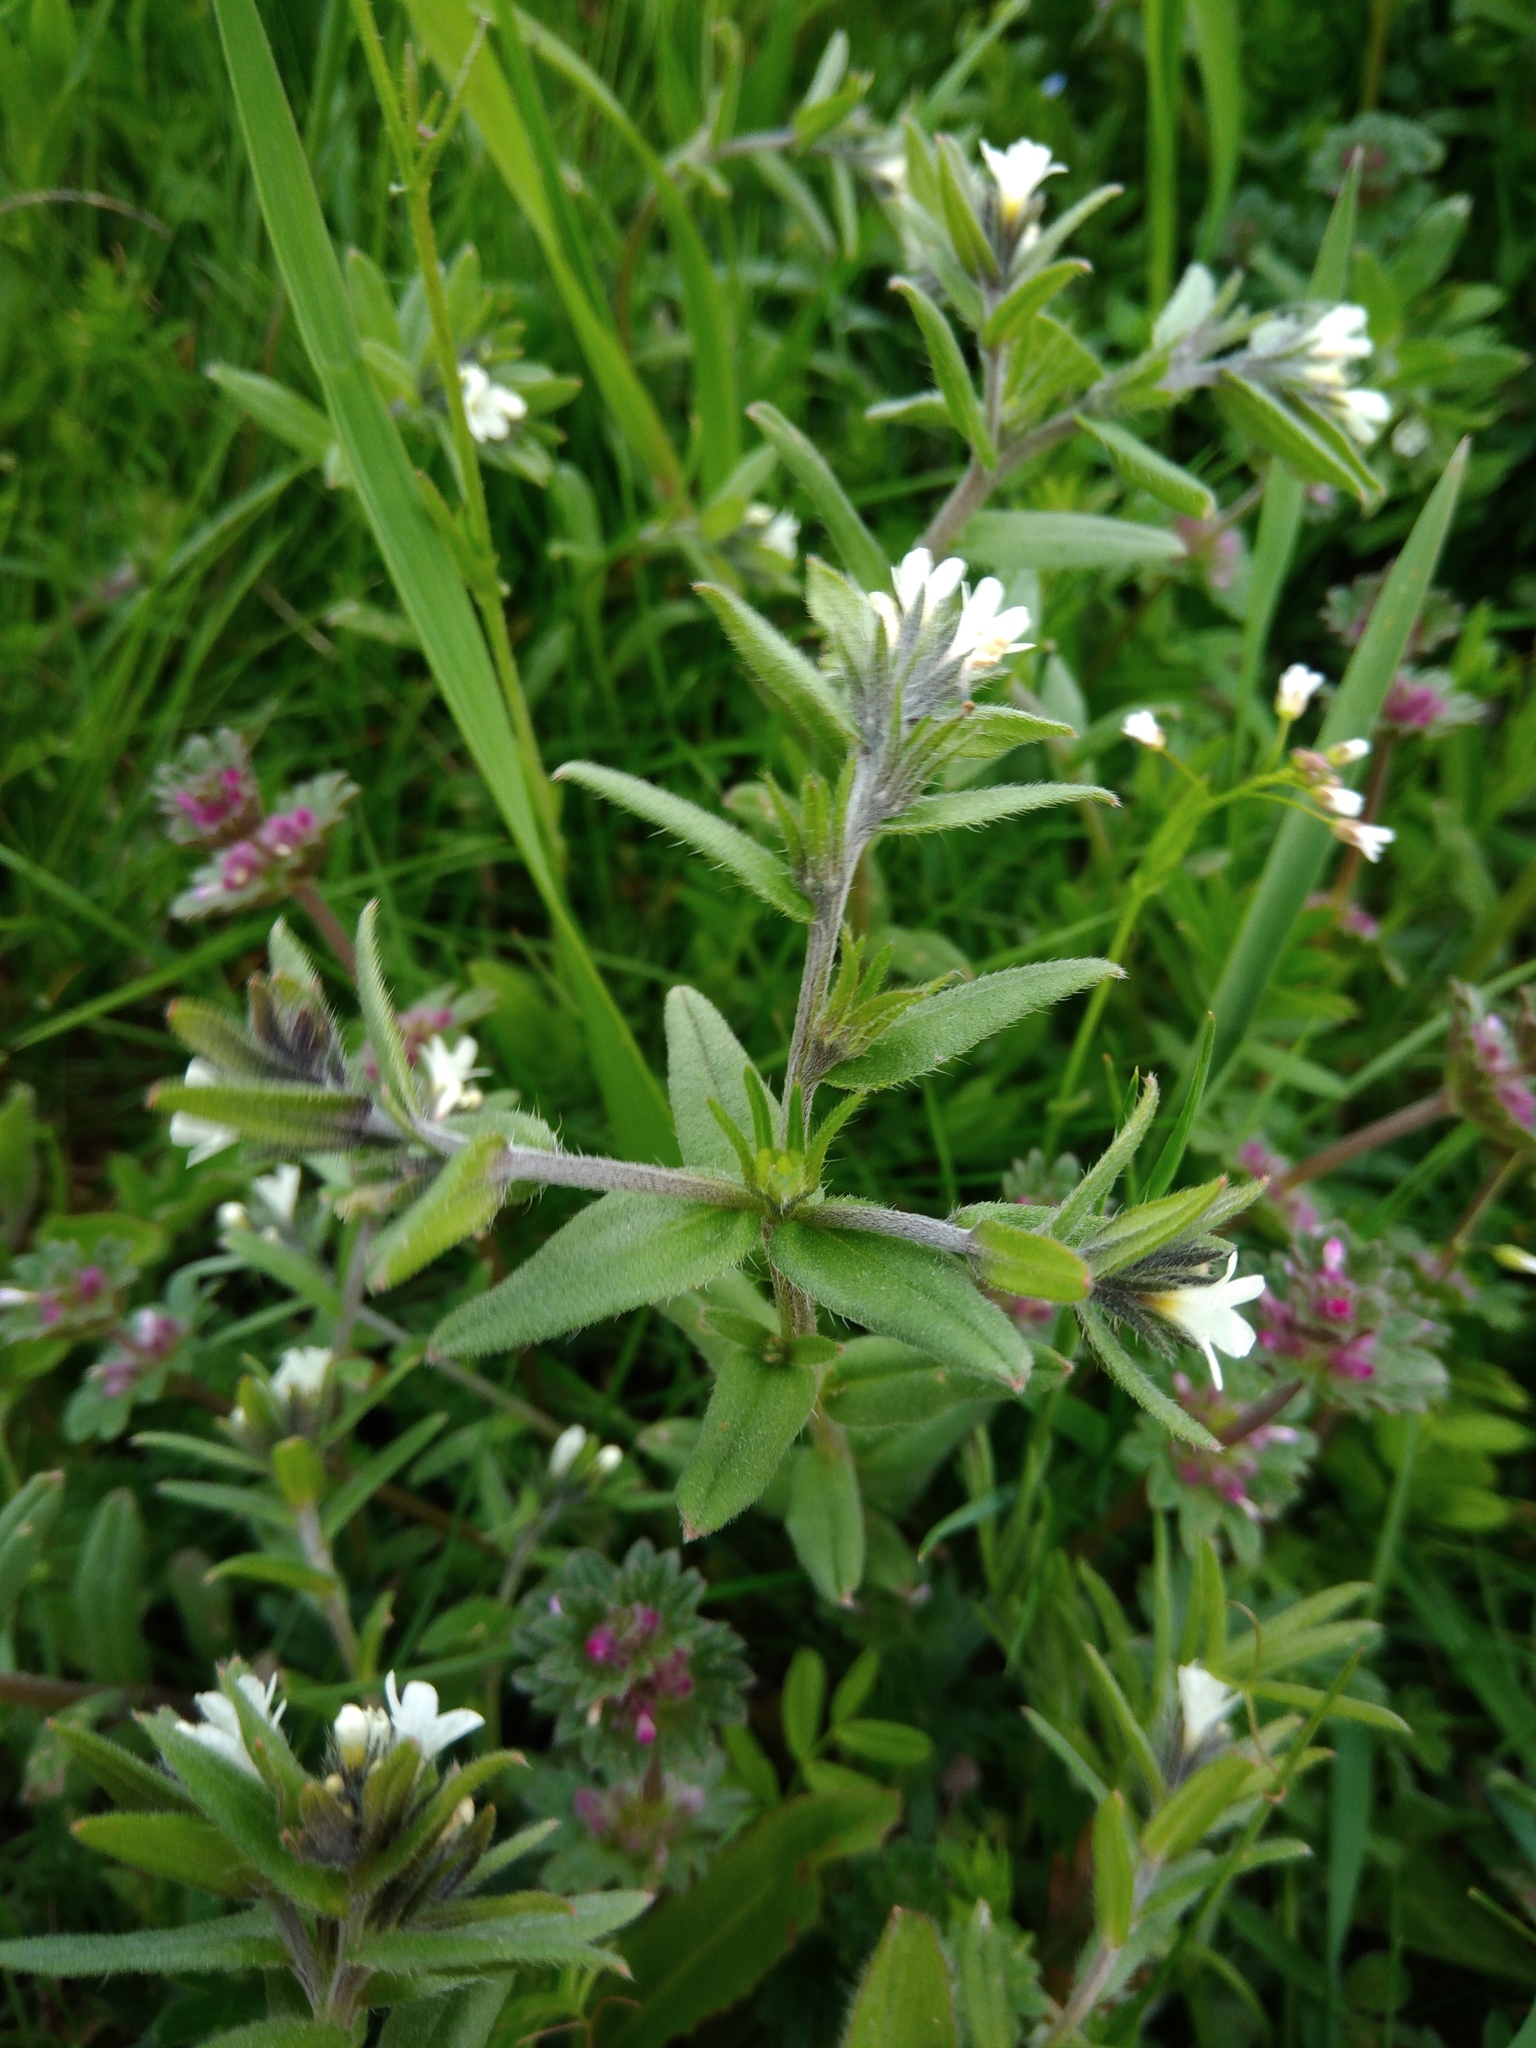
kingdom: Plantae
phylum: Tracheophyta
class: Magnoliopsida
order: Boraginales
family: Boraginaceae
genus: Buglossoides
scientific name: Buglossoides arvensis
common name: Corn gromwell
